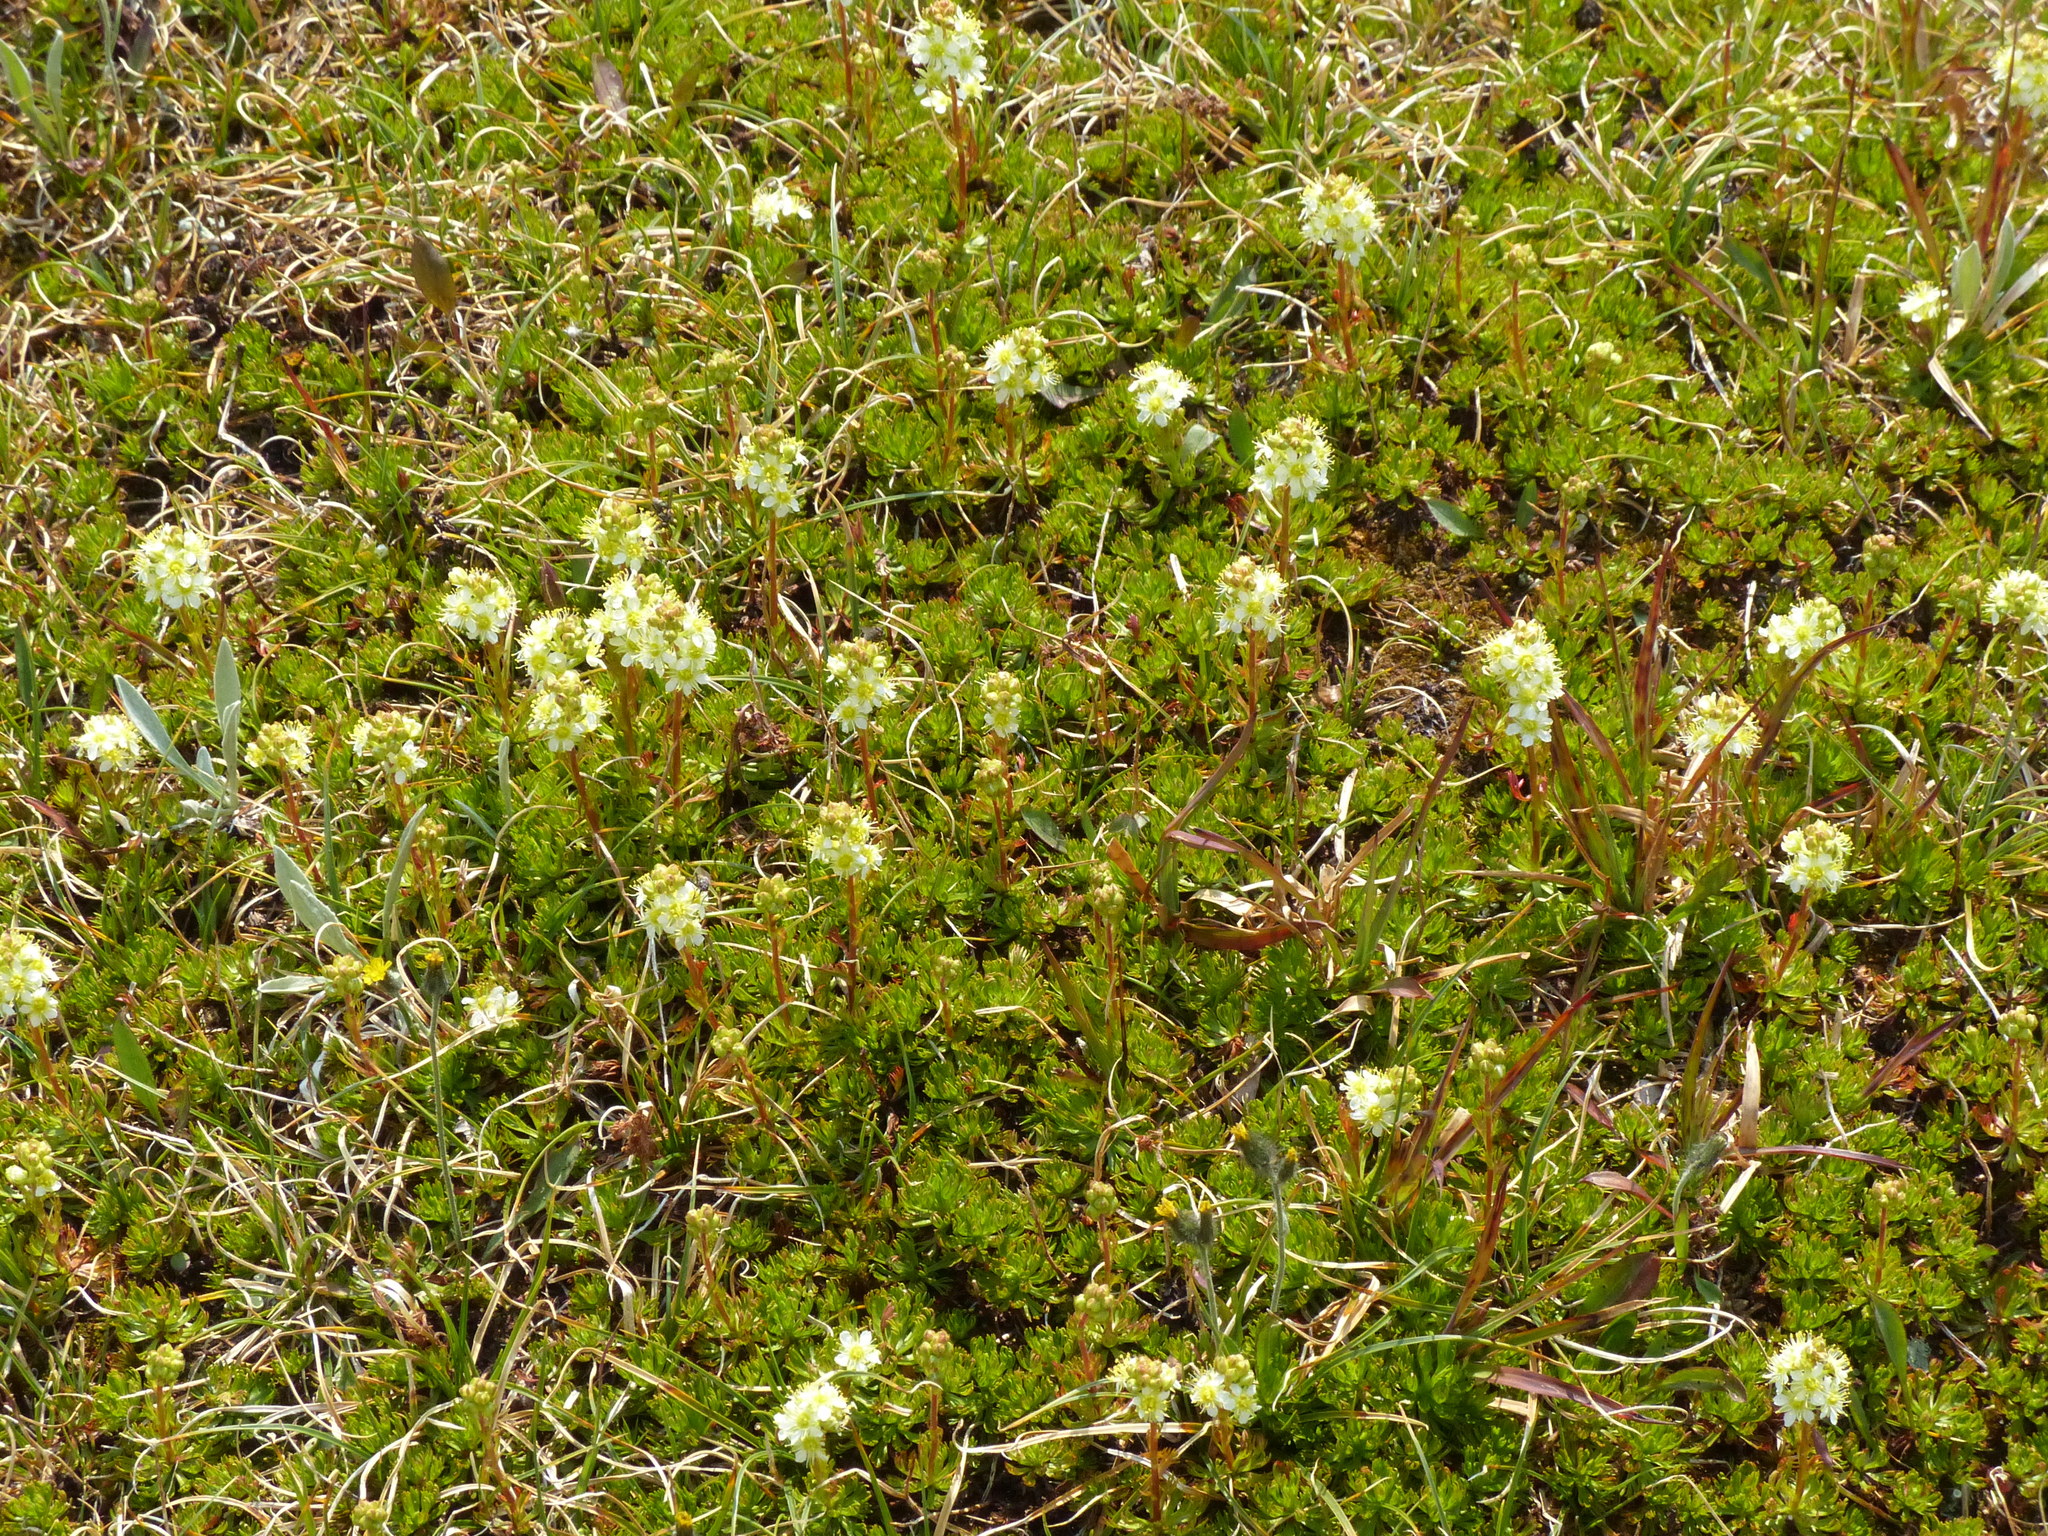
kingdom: Plantae
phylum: Tracheophyta
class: Magnoliopsida
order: Rosales
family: Rosaceae
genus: Luetkea
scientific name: Luetkea pectinata
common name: Partridgefoot
